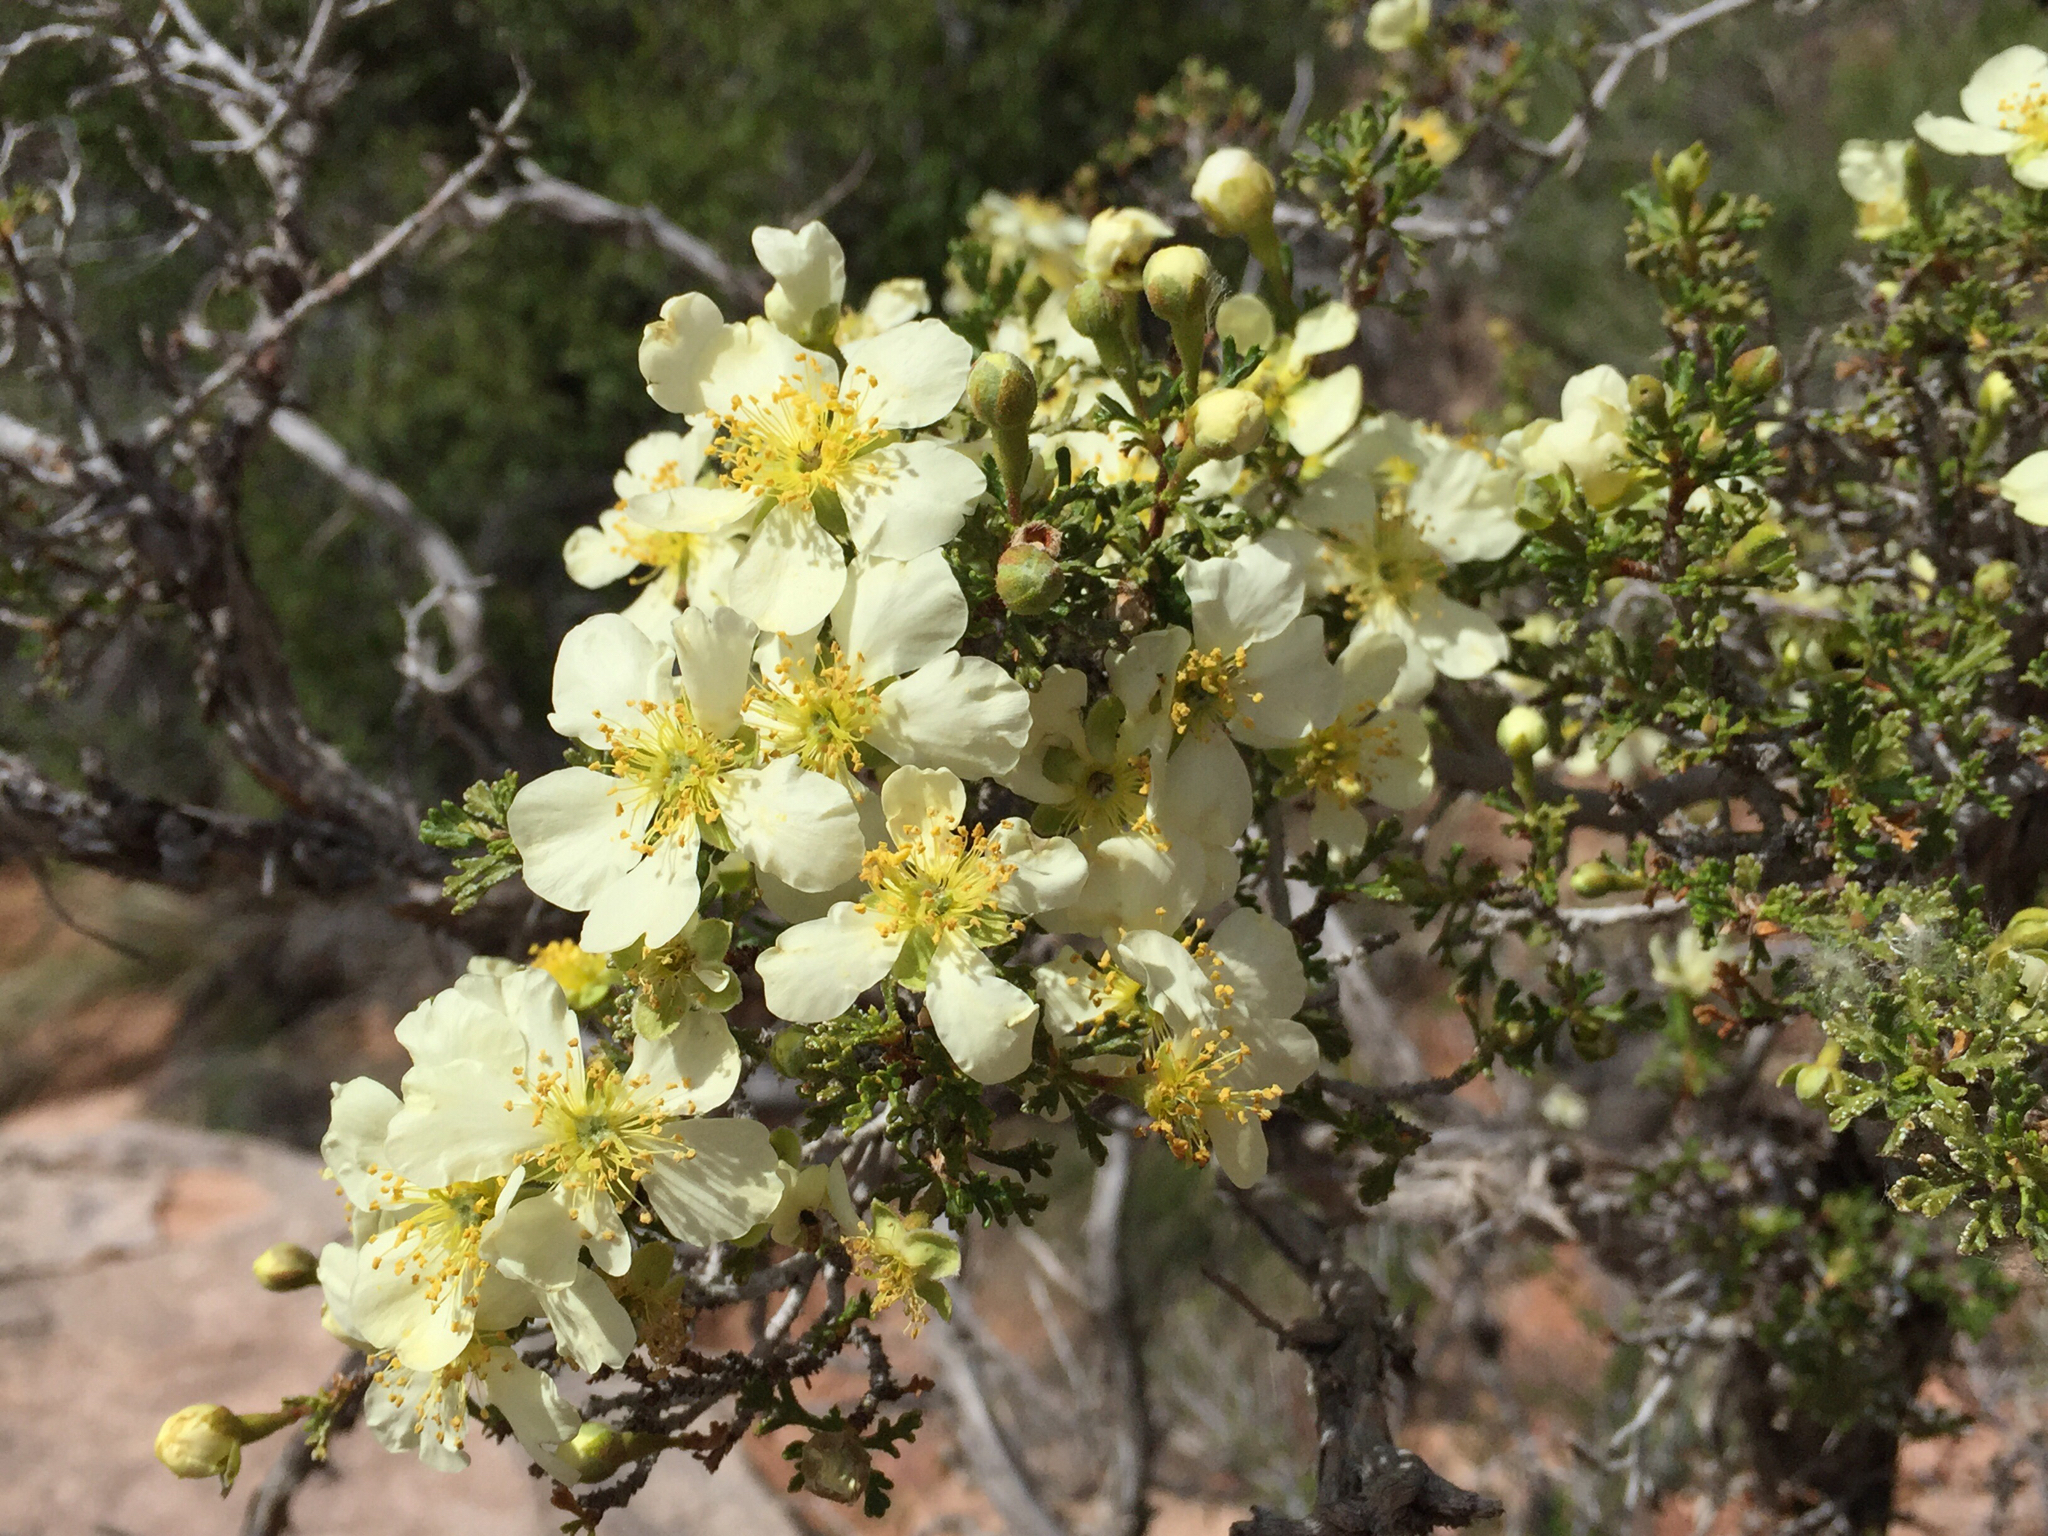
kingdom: Plantae
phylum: Tracheophyta
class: Magnoliopsida
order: Rosales
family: Rosaceae
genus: Purshia
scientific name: Purshia stansburiana
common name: Stansbury's cliffrose
